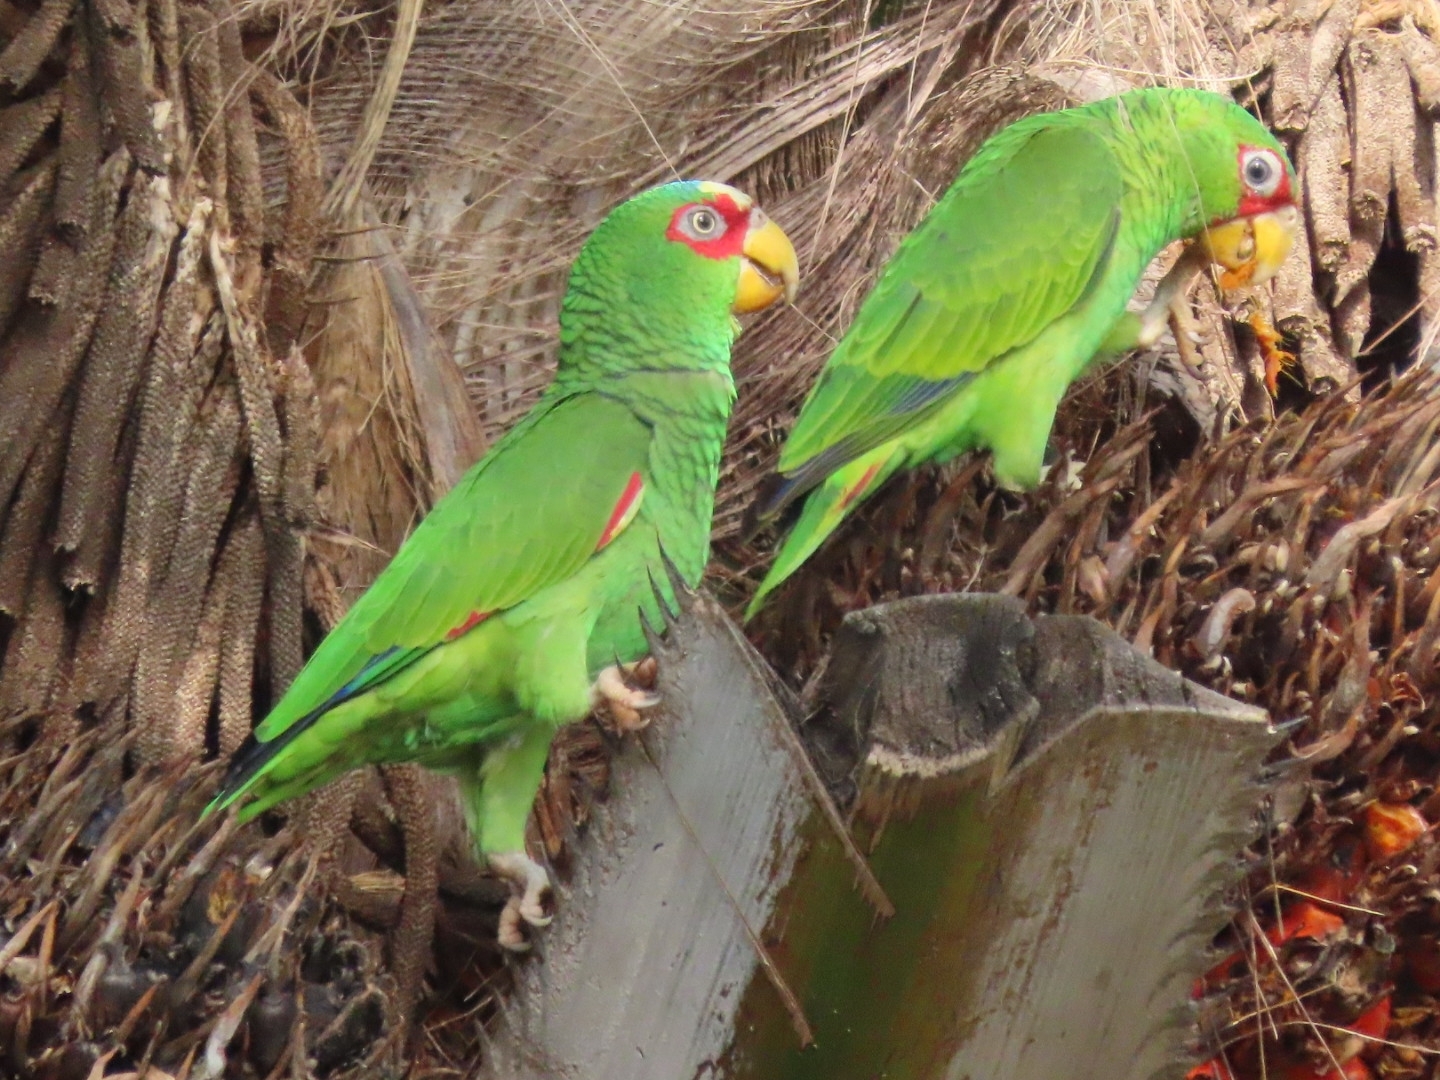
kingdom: Animalia
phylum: Chordata
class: Aves
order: Psittaciformes
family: Psittacidae
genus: Amazona
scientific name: Amazona albifrons
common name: White-fronted amazon
